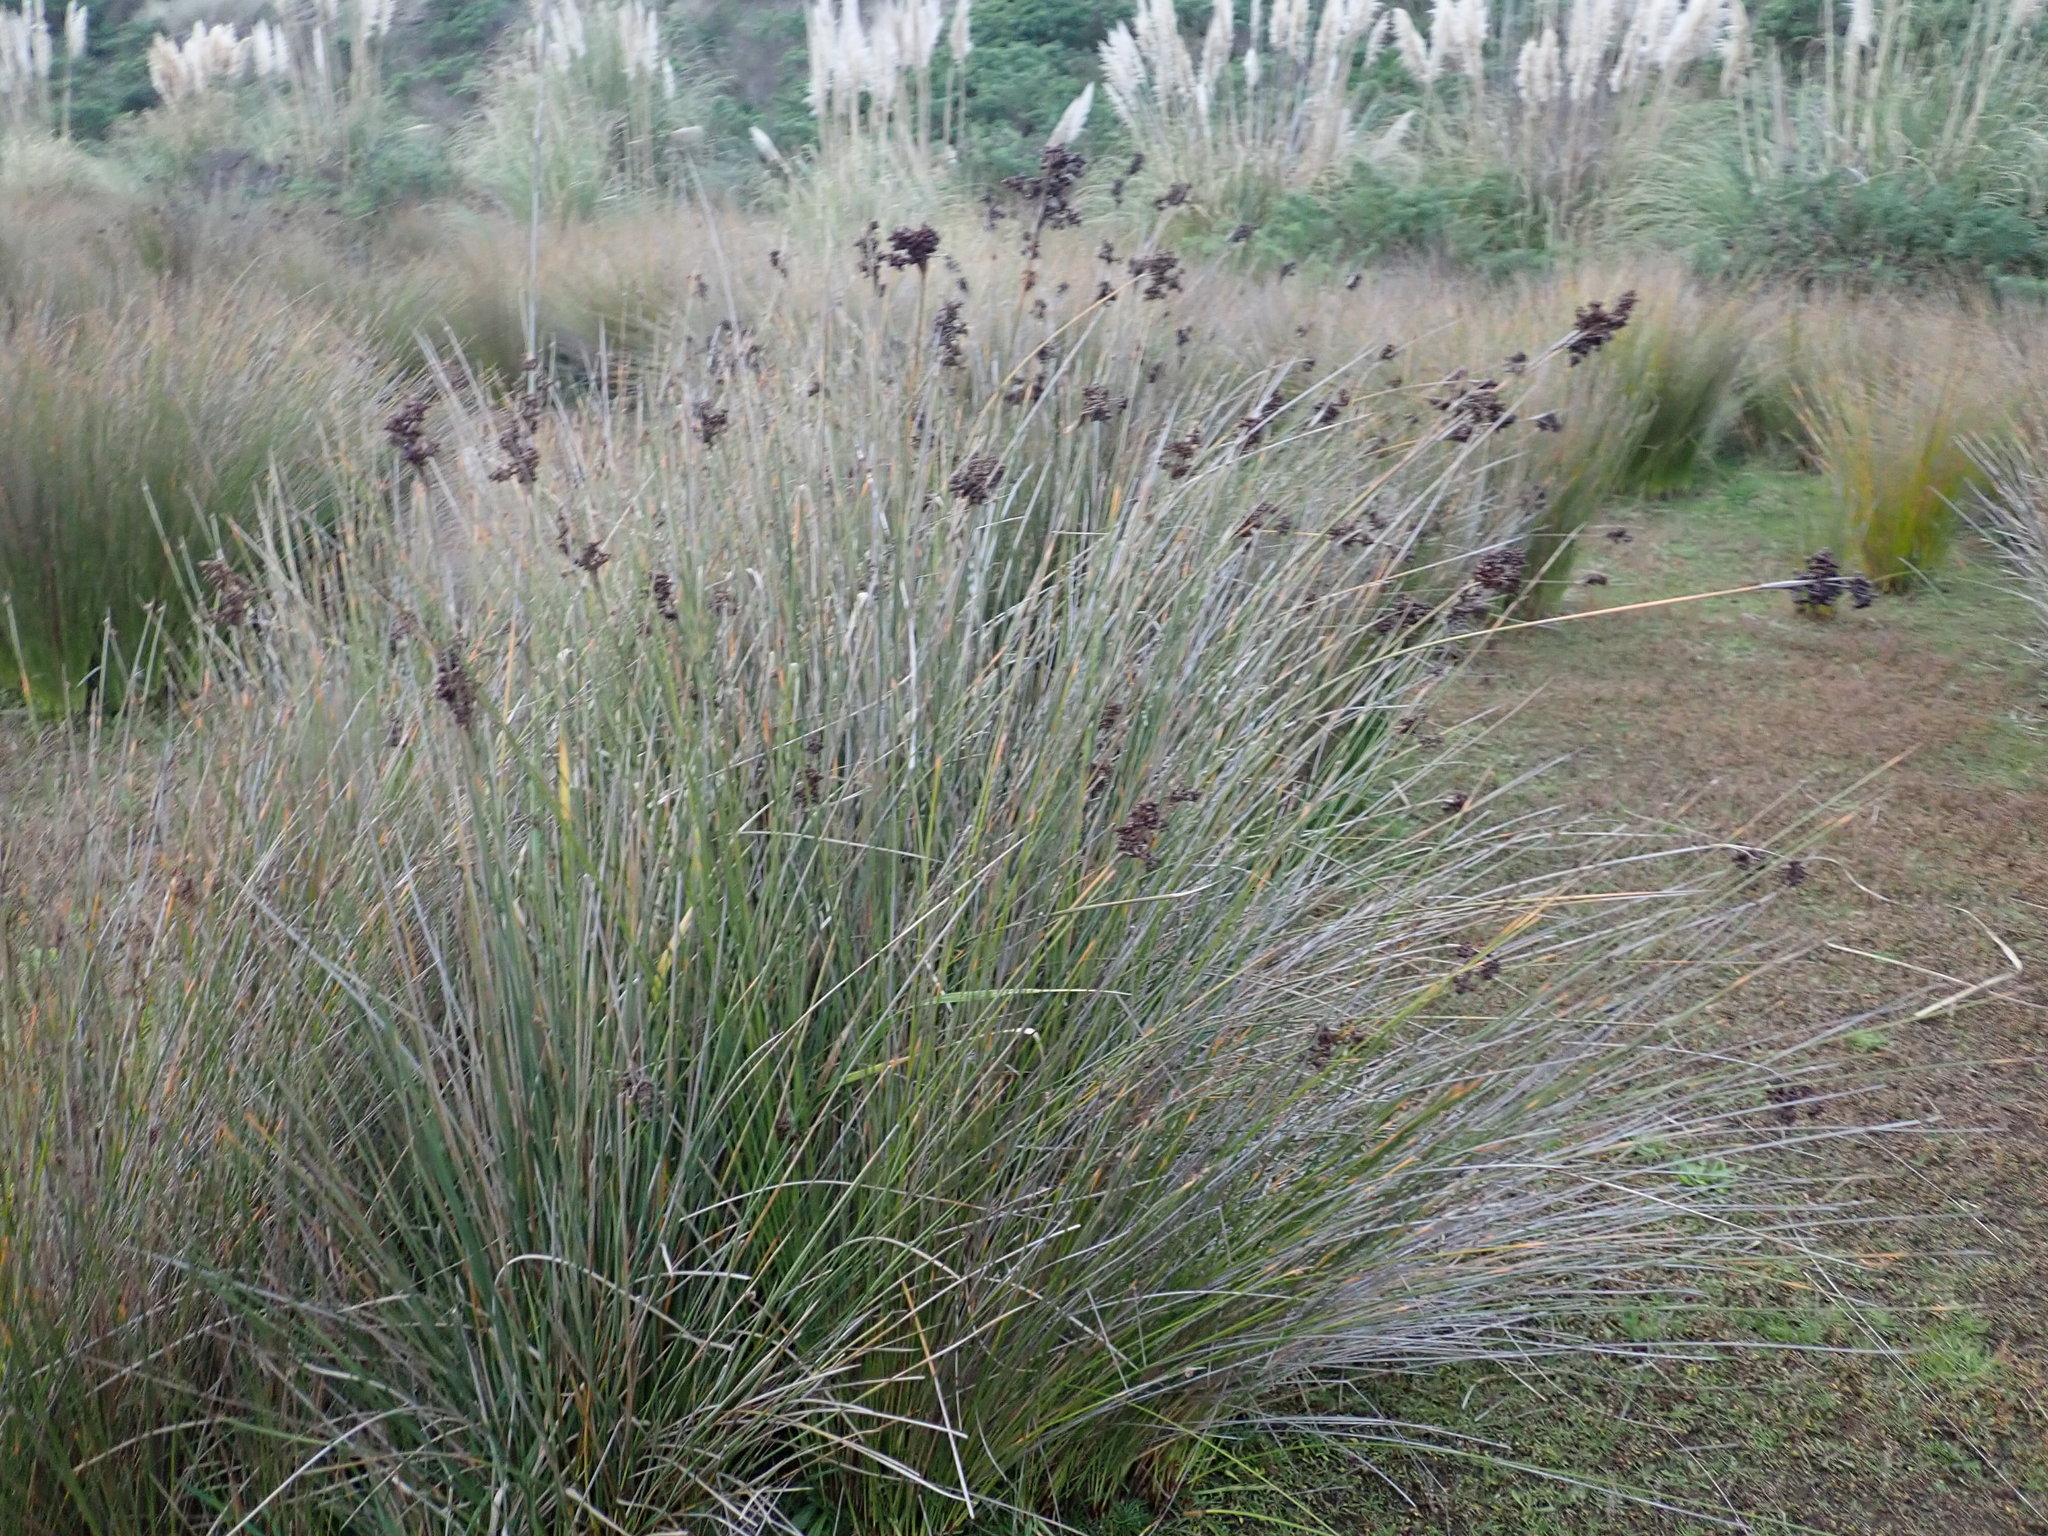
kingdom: Plantae
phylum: Tracheophyta
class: Liliopsida
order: Poales
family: Juncaceae
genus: Juncus
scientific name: Juncus acutus
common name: Sharp rush
